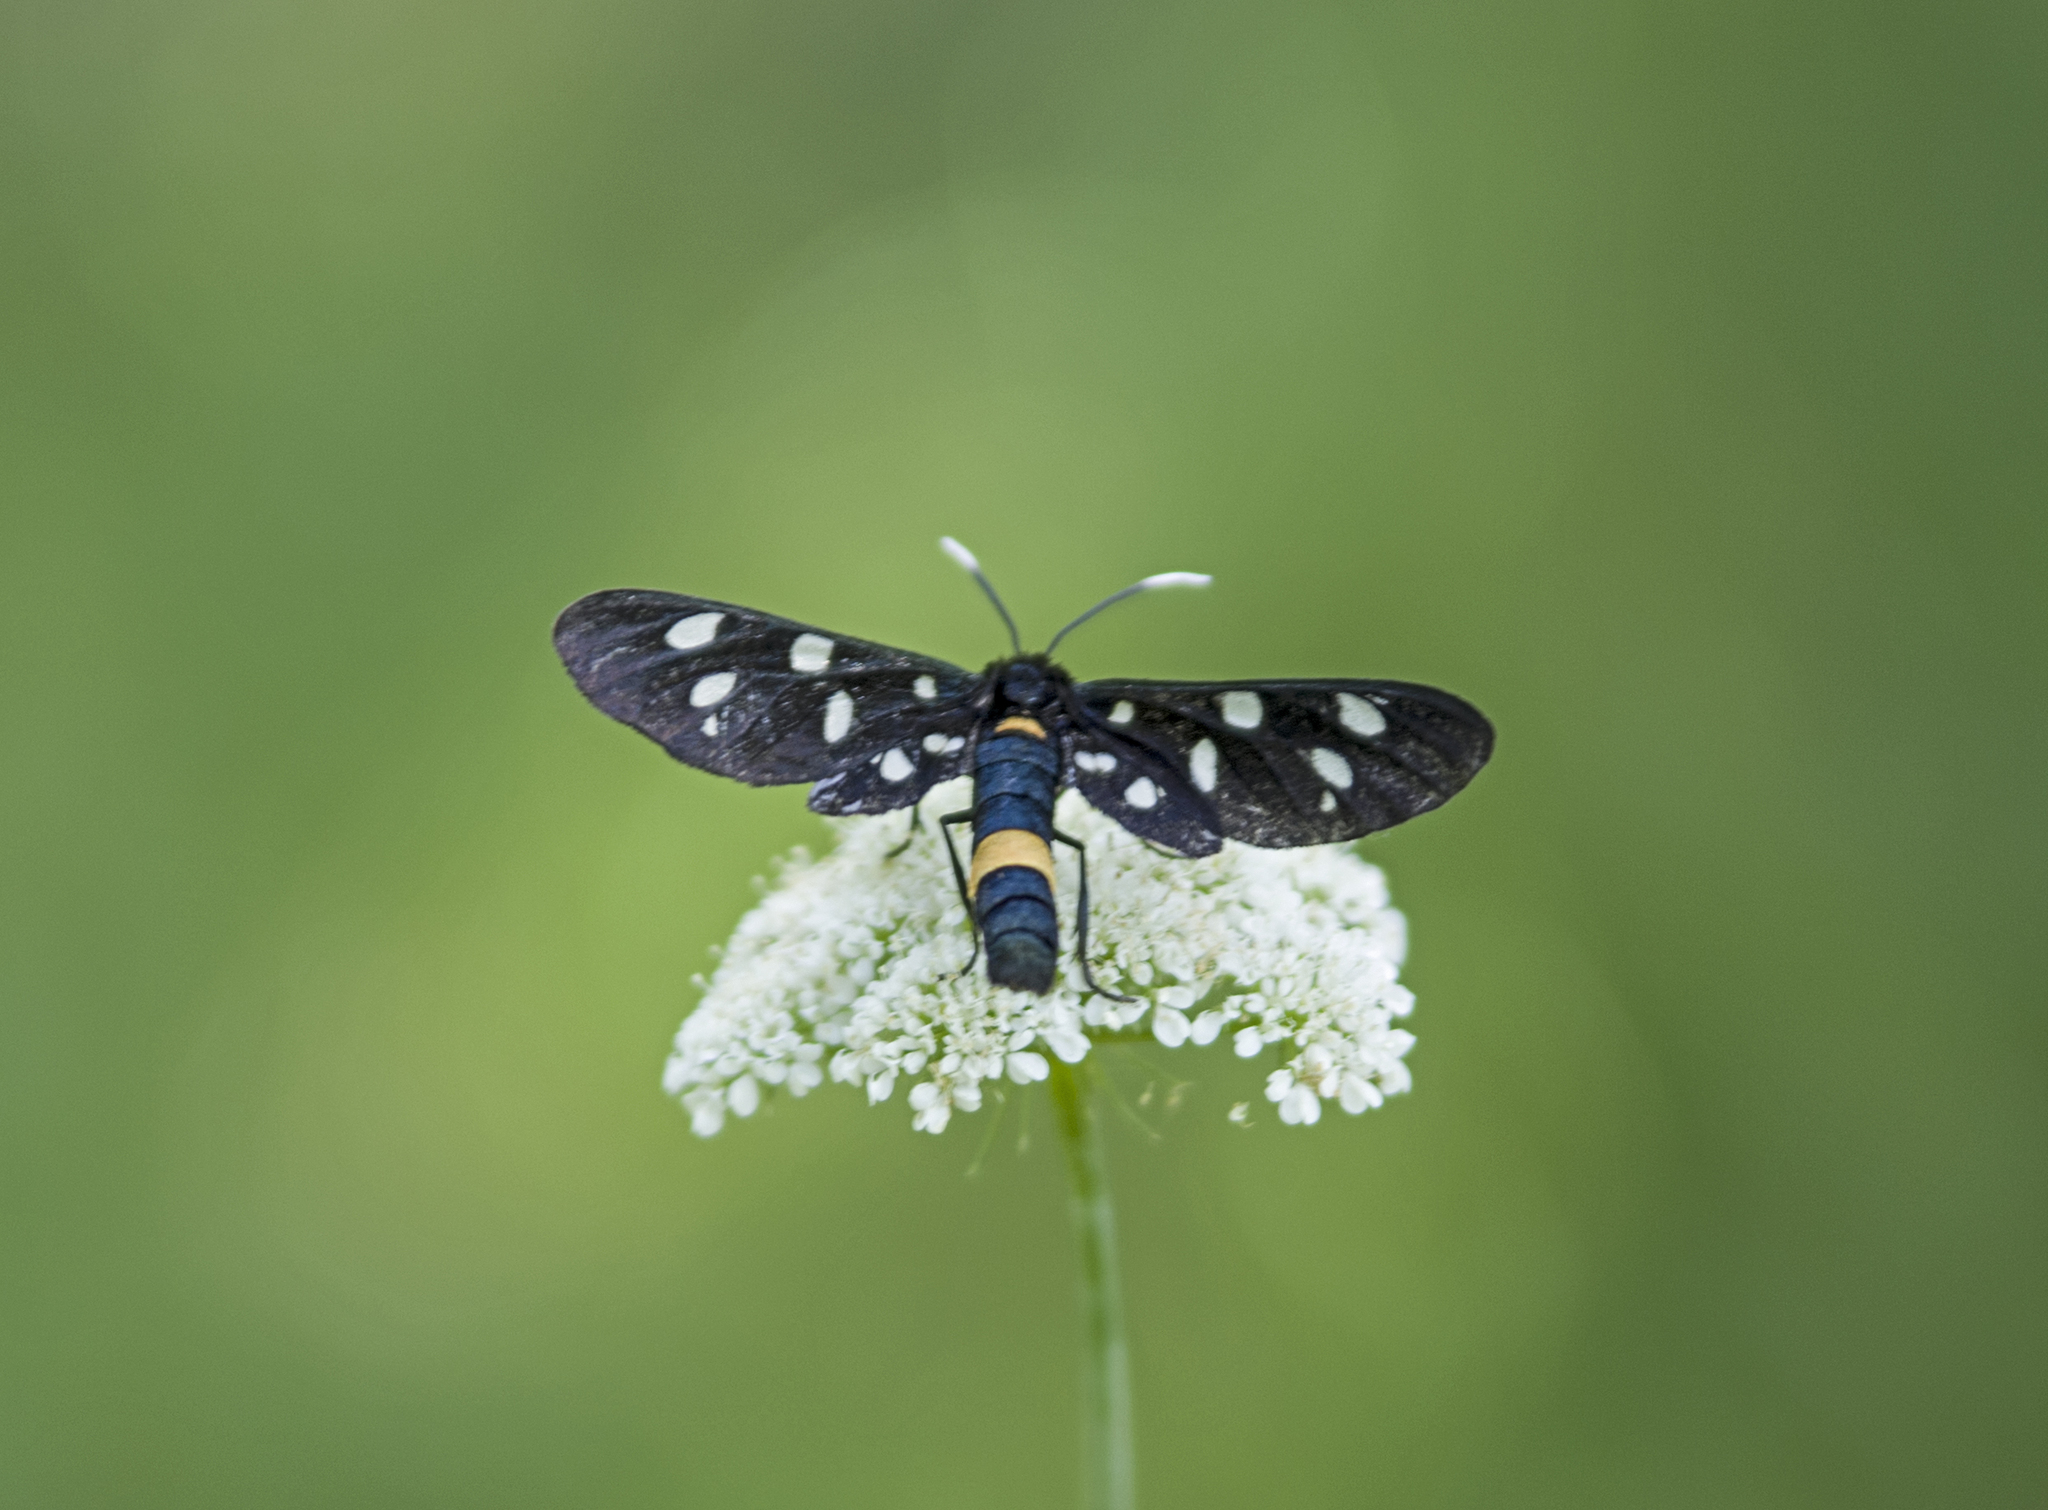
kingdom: Animalia
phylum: Arthropoda
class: Insecta
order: Lepidoptera
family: Erebidae
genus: Amata
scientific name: Amata phegea
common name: Nine-spotted
